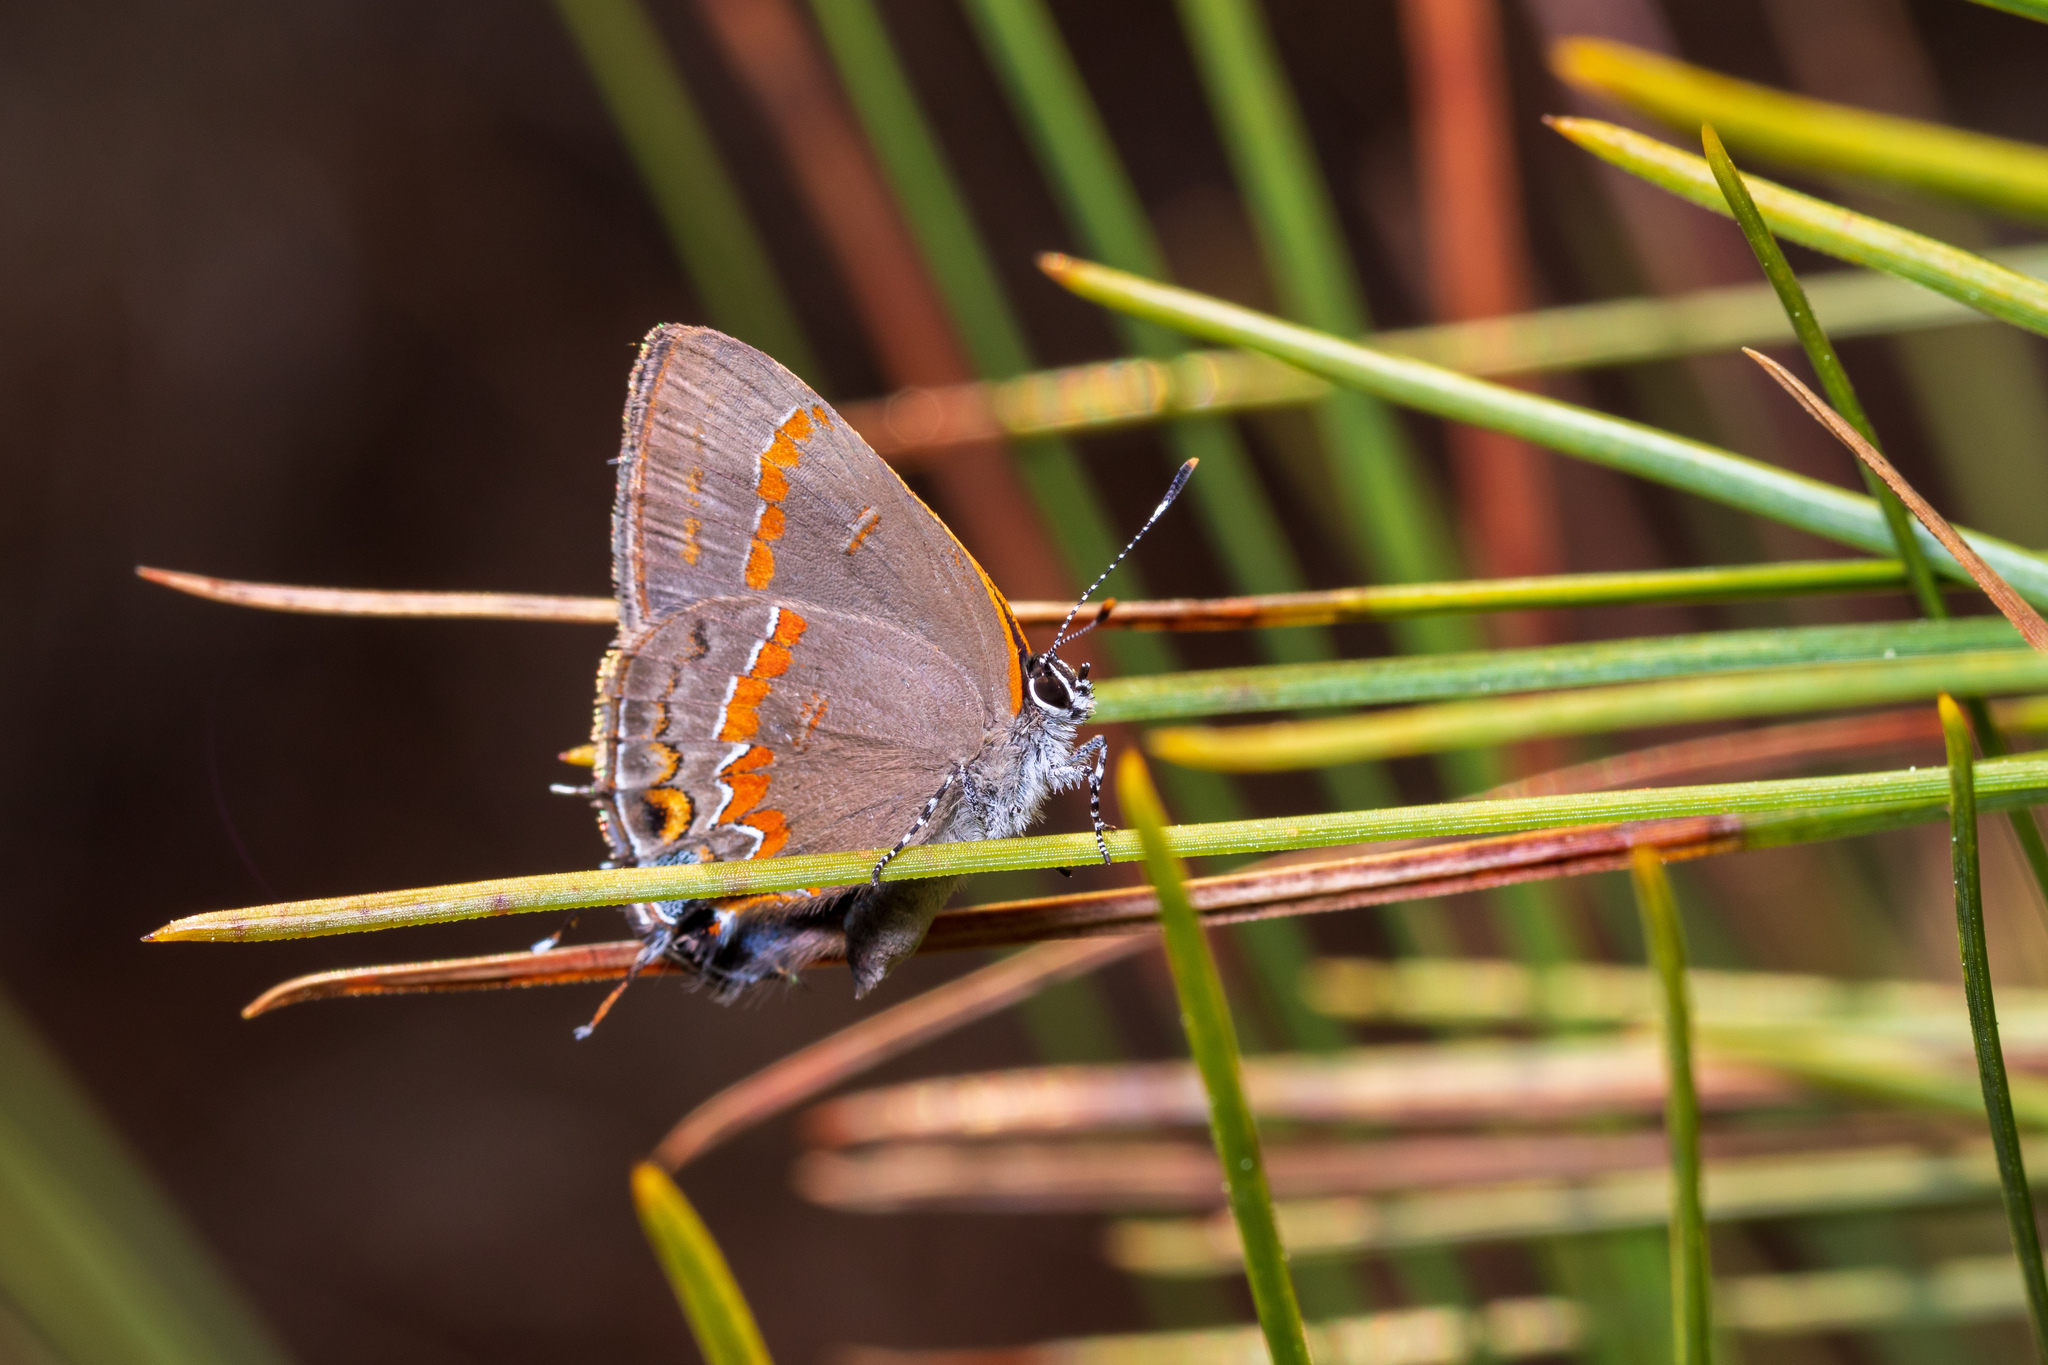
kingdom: Animalia
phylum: Arthropoda
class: Insecta
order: Lepidoptera
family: Lycaenidae
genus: Calycopis
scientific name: Calycopis cecrops
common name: Red-banded hairstreak
